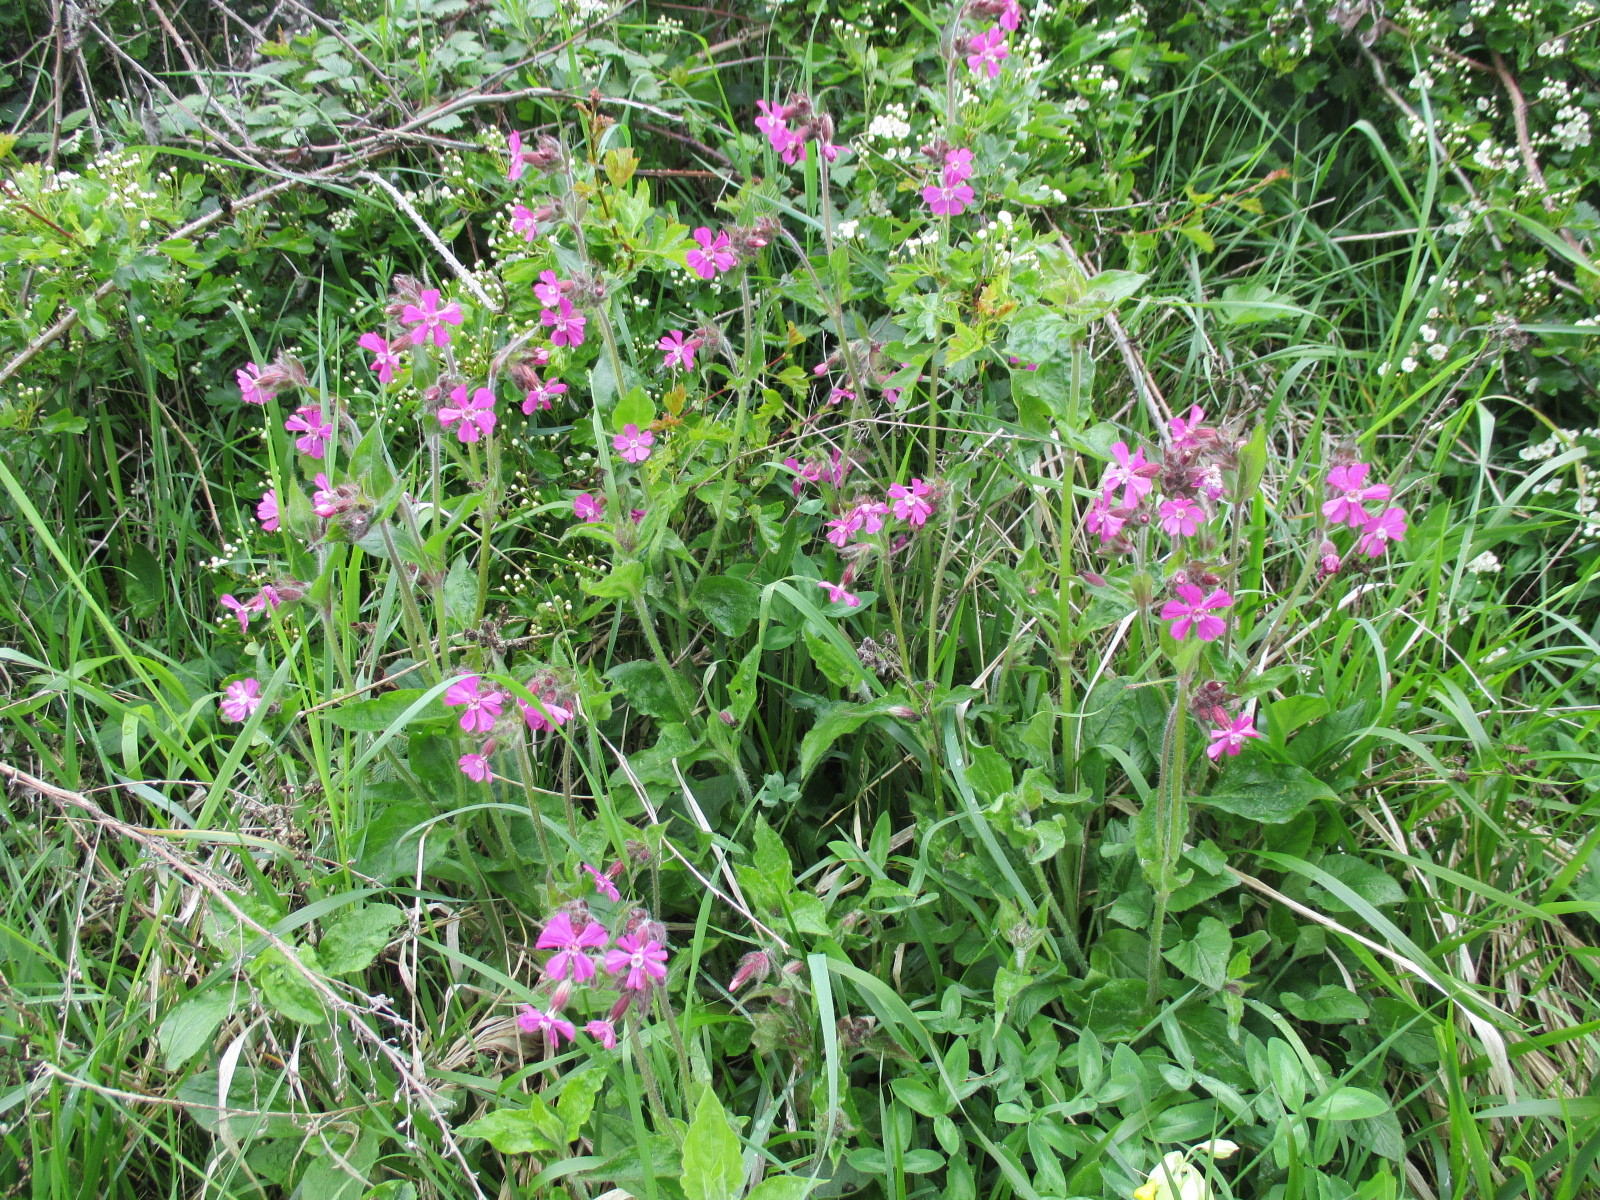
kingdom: Plantae
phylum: Tracheophyta
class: Magnoliopsida
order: Caryophyllales
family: Caryophyllaceae
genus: Silene
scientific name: Silene dioica
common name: Red campion
